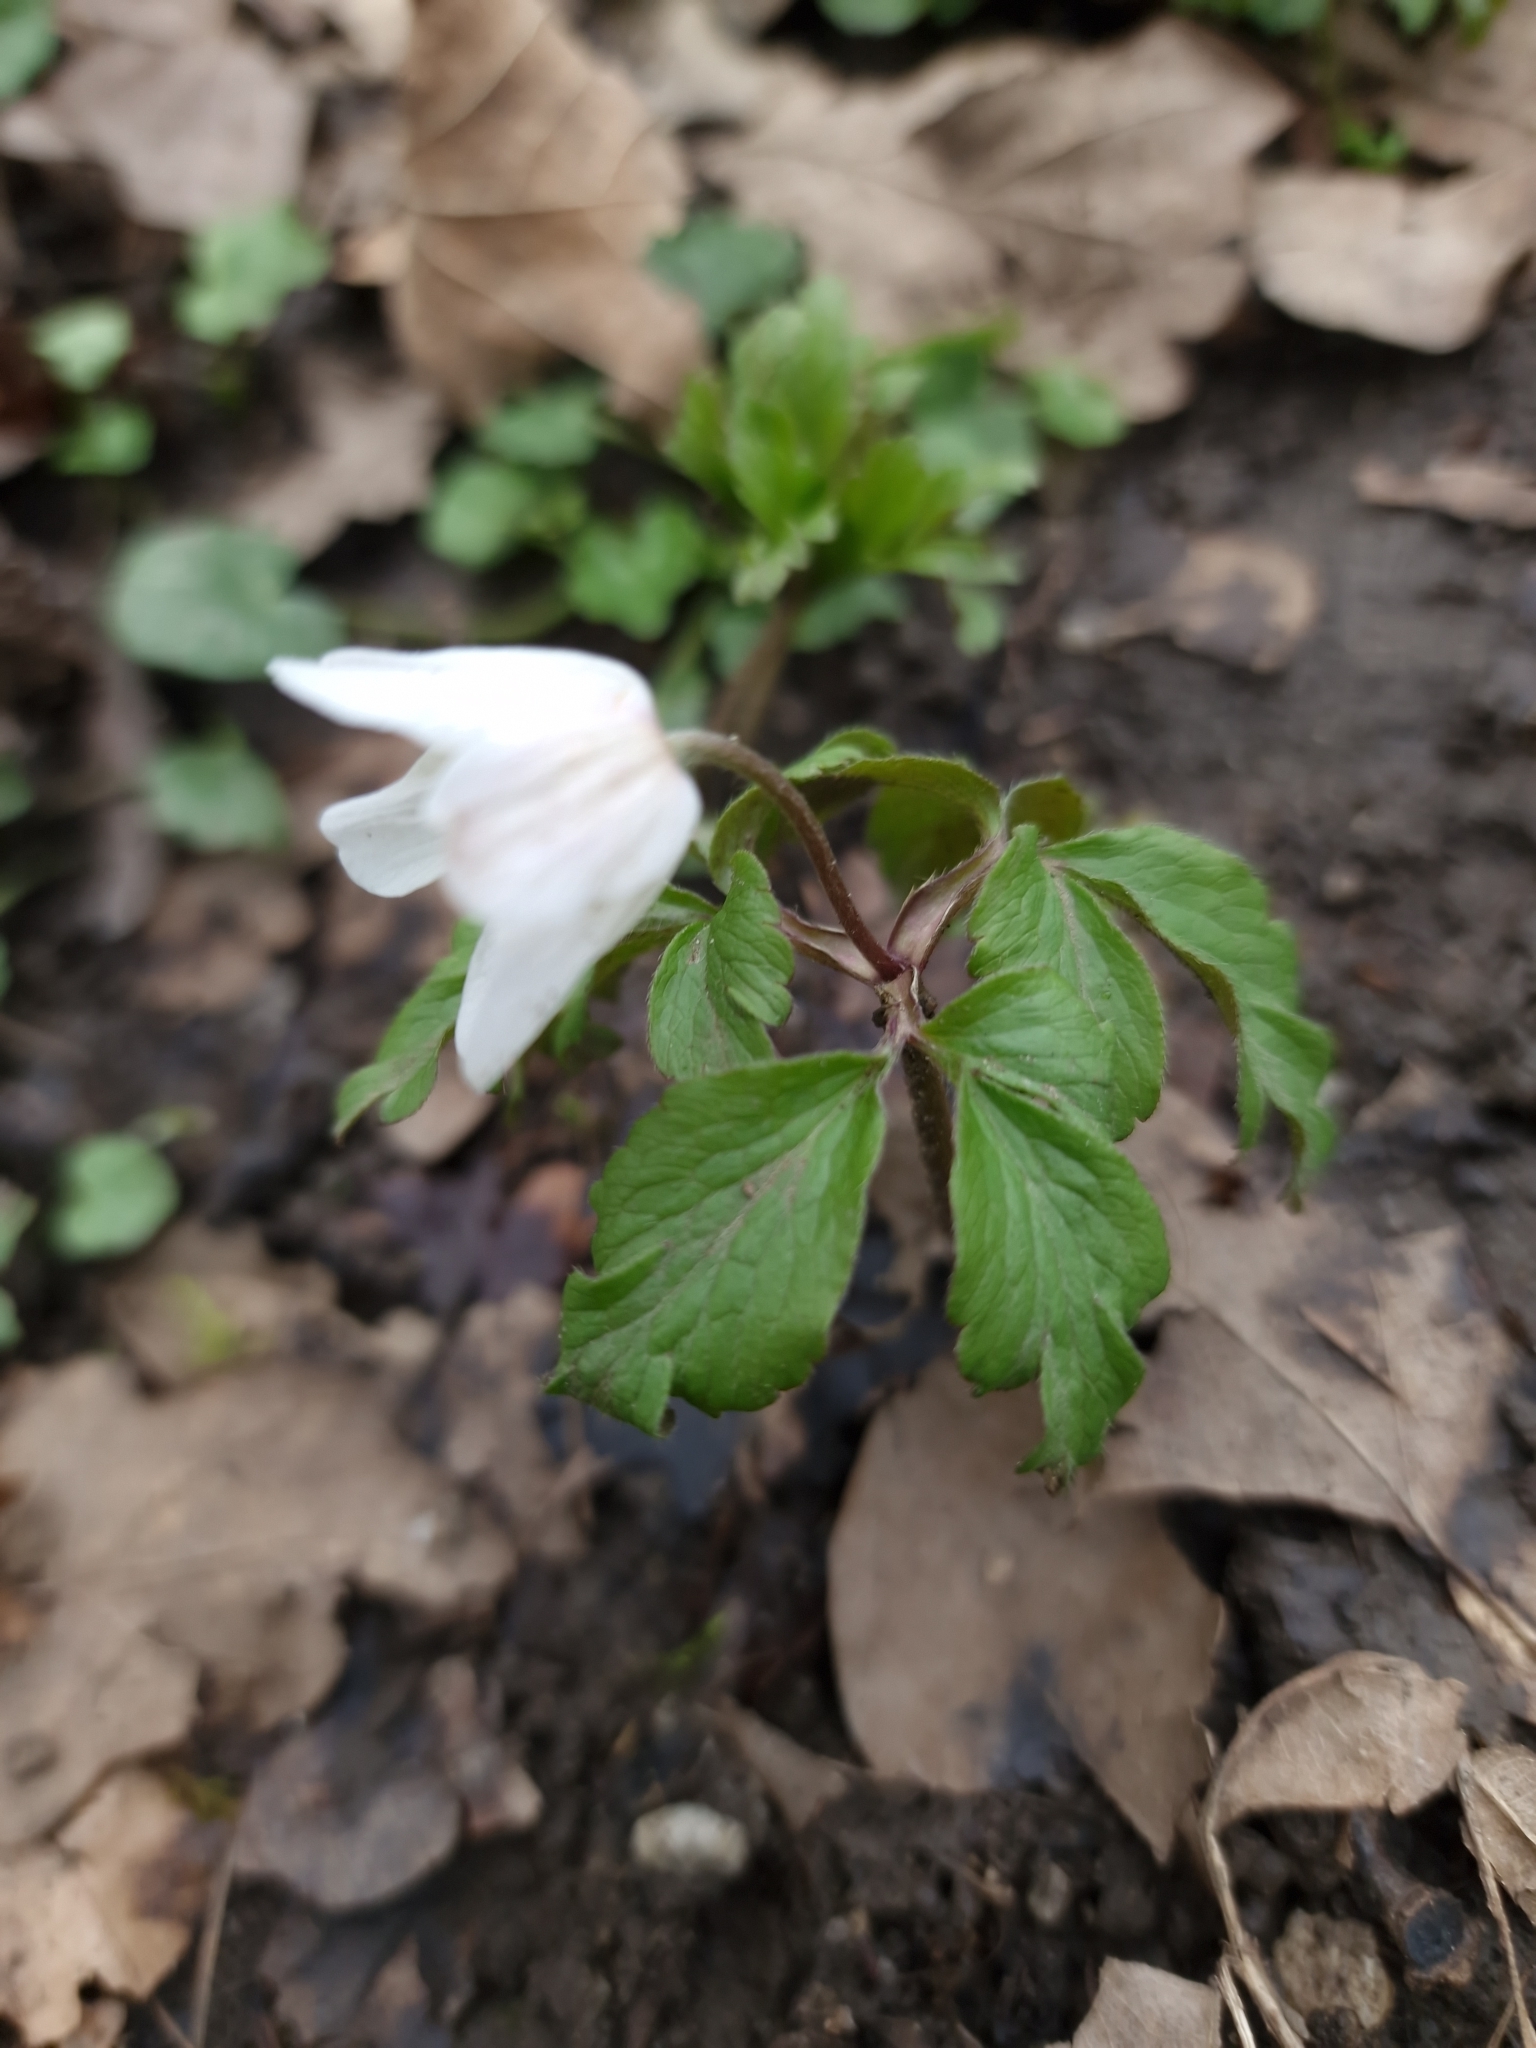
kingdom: Plantae
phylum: Tracheophyta
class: Magnoliopsida
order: Ranunculales
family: Ranunculaceae
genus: Anemone
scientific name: Anemone nemorosa
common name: Wood anemone
